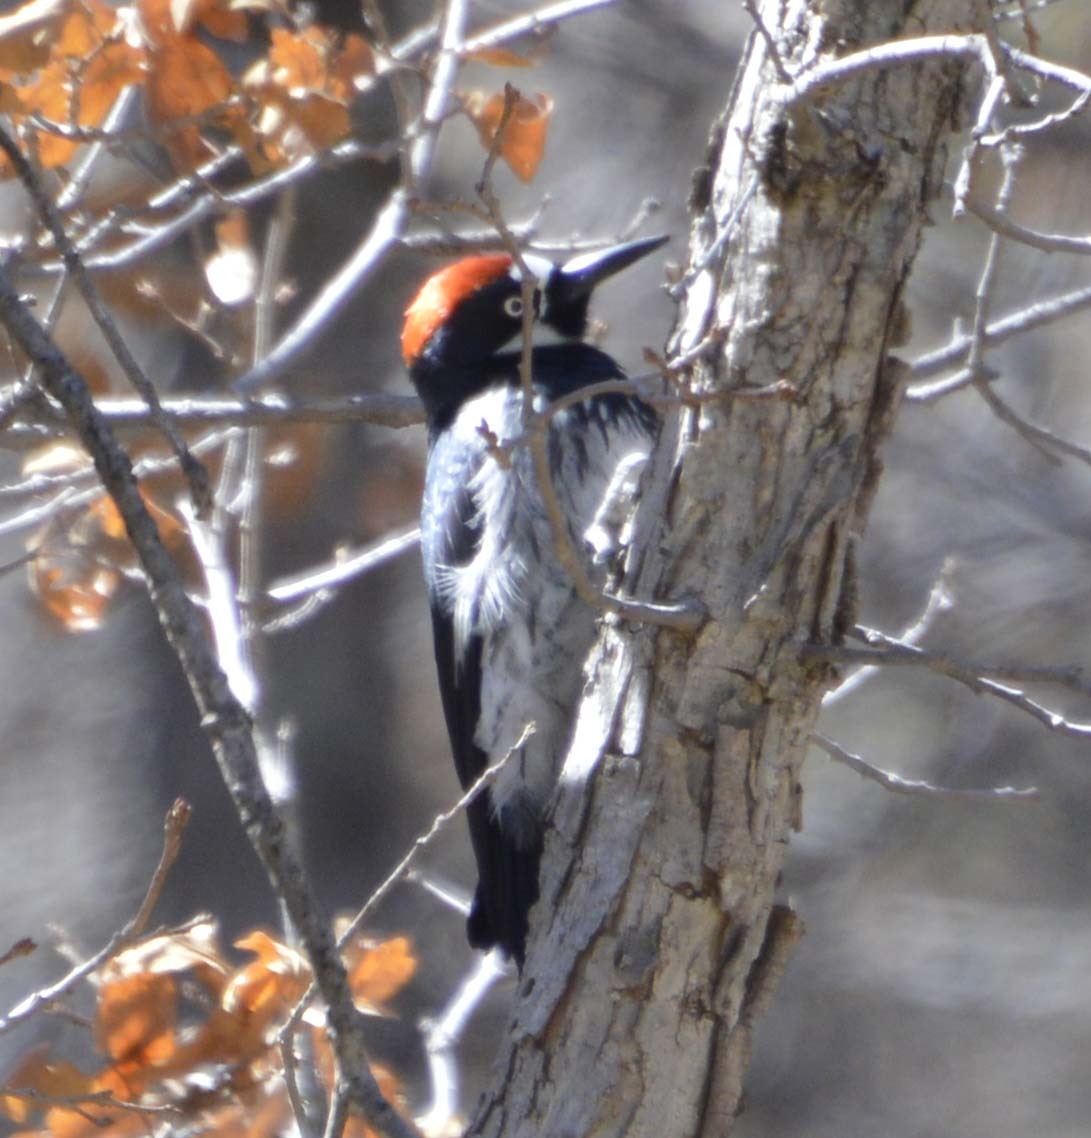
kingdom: Animalia
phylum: Chordata
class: Aves
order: Piciformes
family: Picidae
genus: Melanerpes
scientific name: Melanerpes formicivorus
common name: Acorn woodpecker
